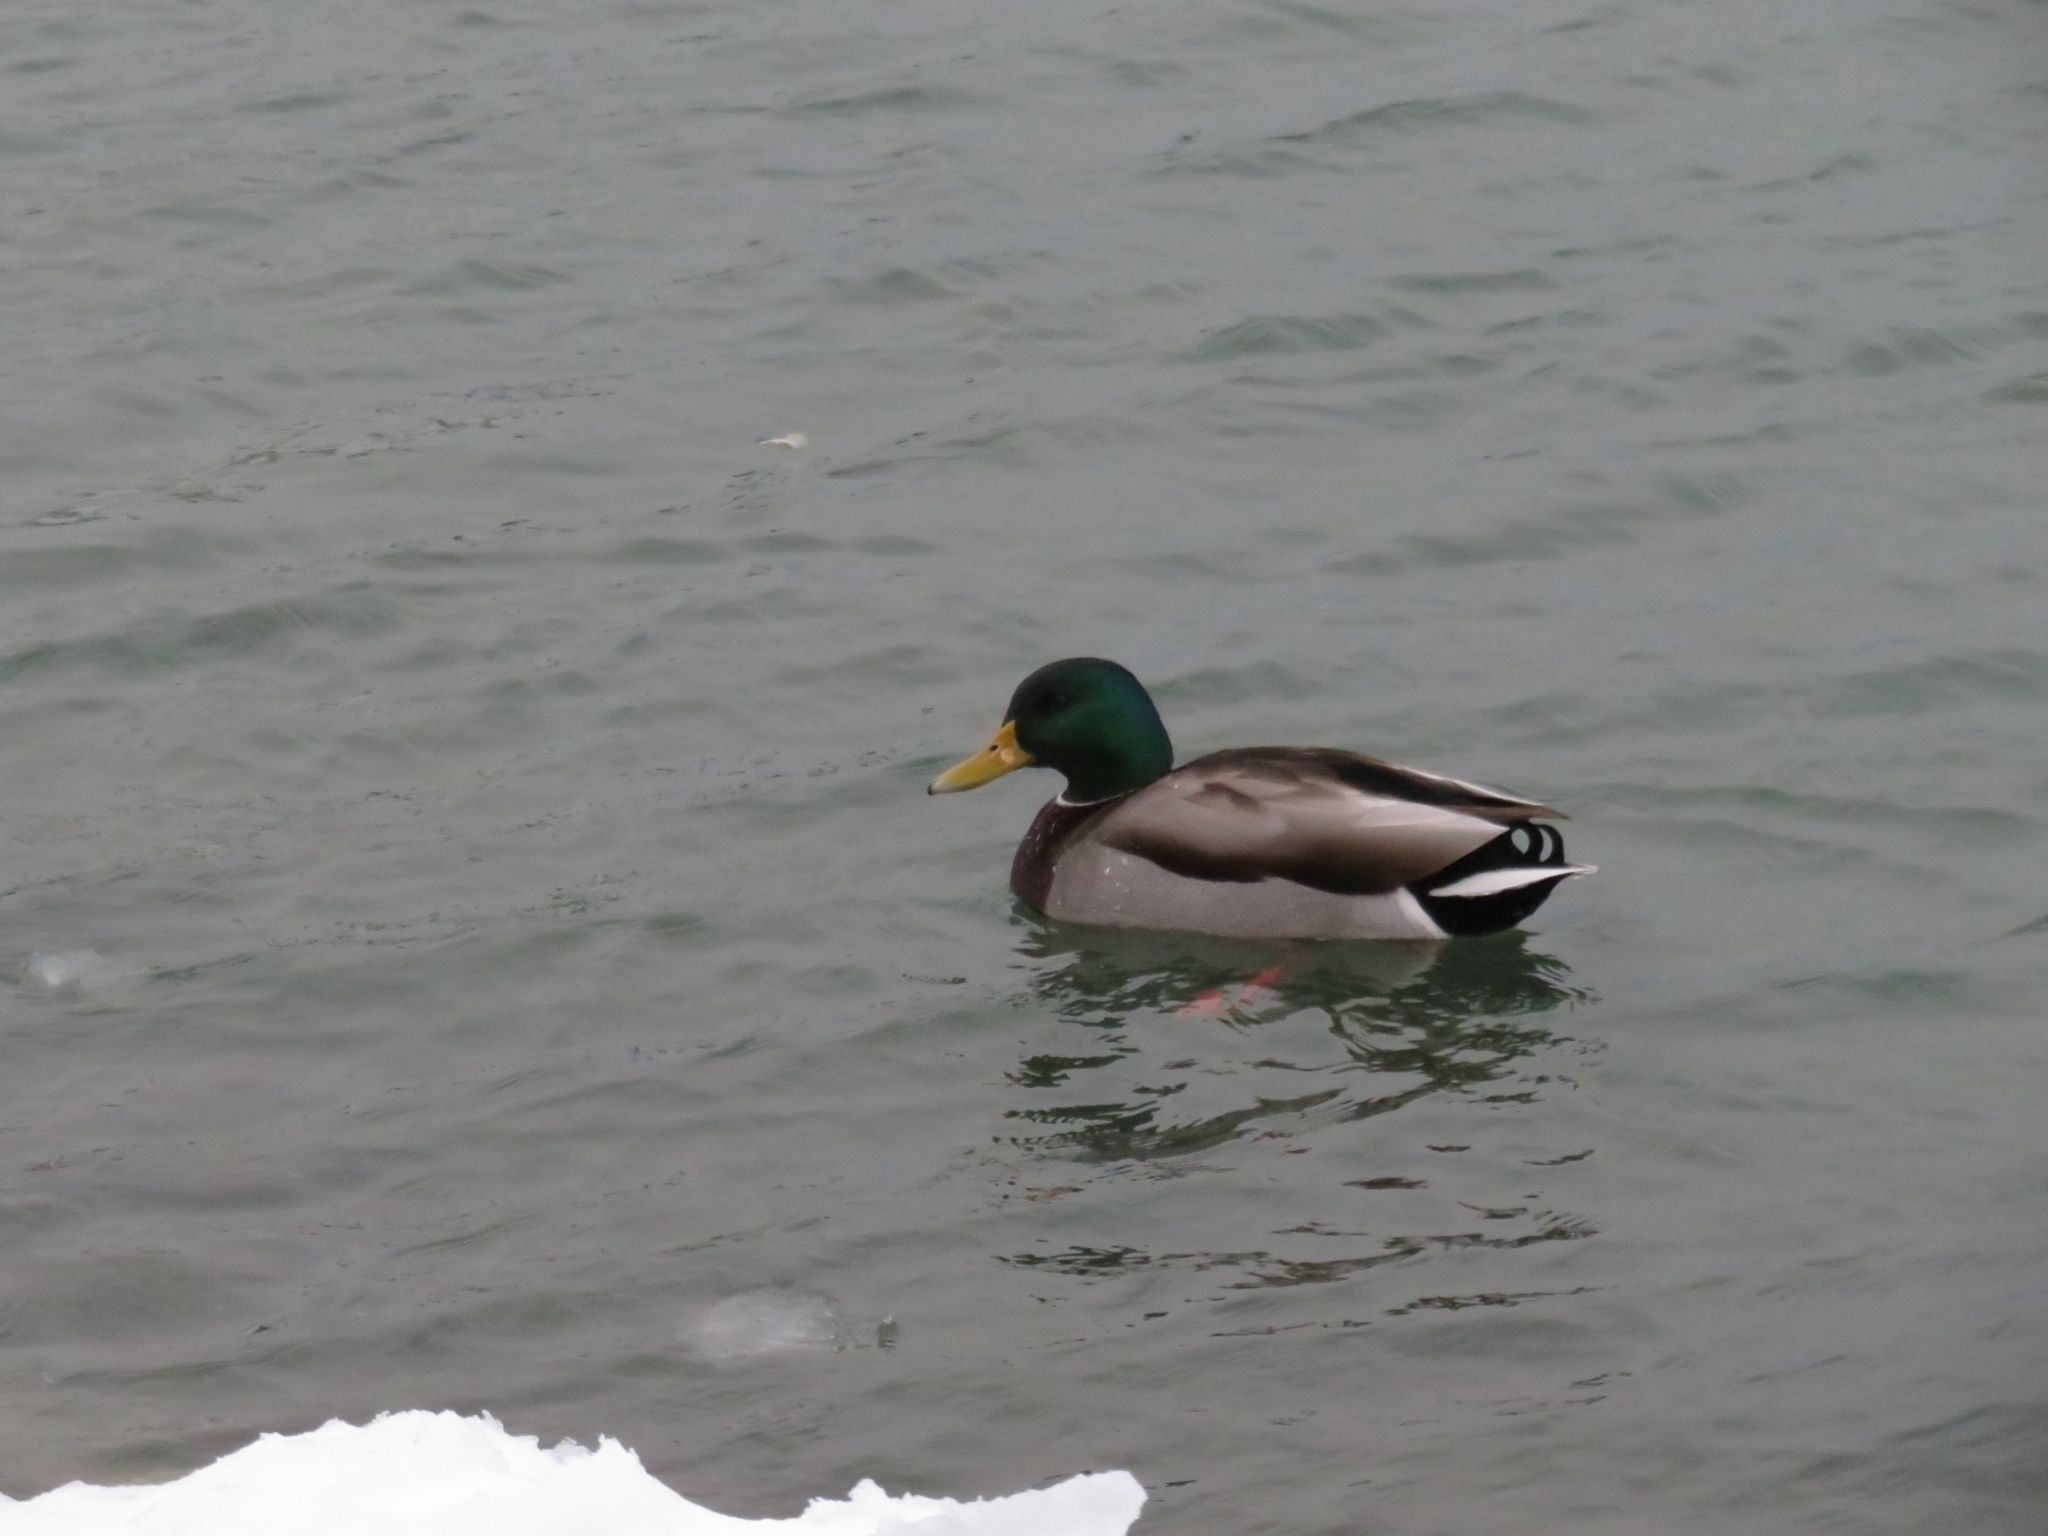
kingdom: Animalia
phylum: Chordata
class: Aves
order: Anseriformes
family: Anatidae
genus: Anas
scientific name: Anas platyrhynchos
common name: Mallard
